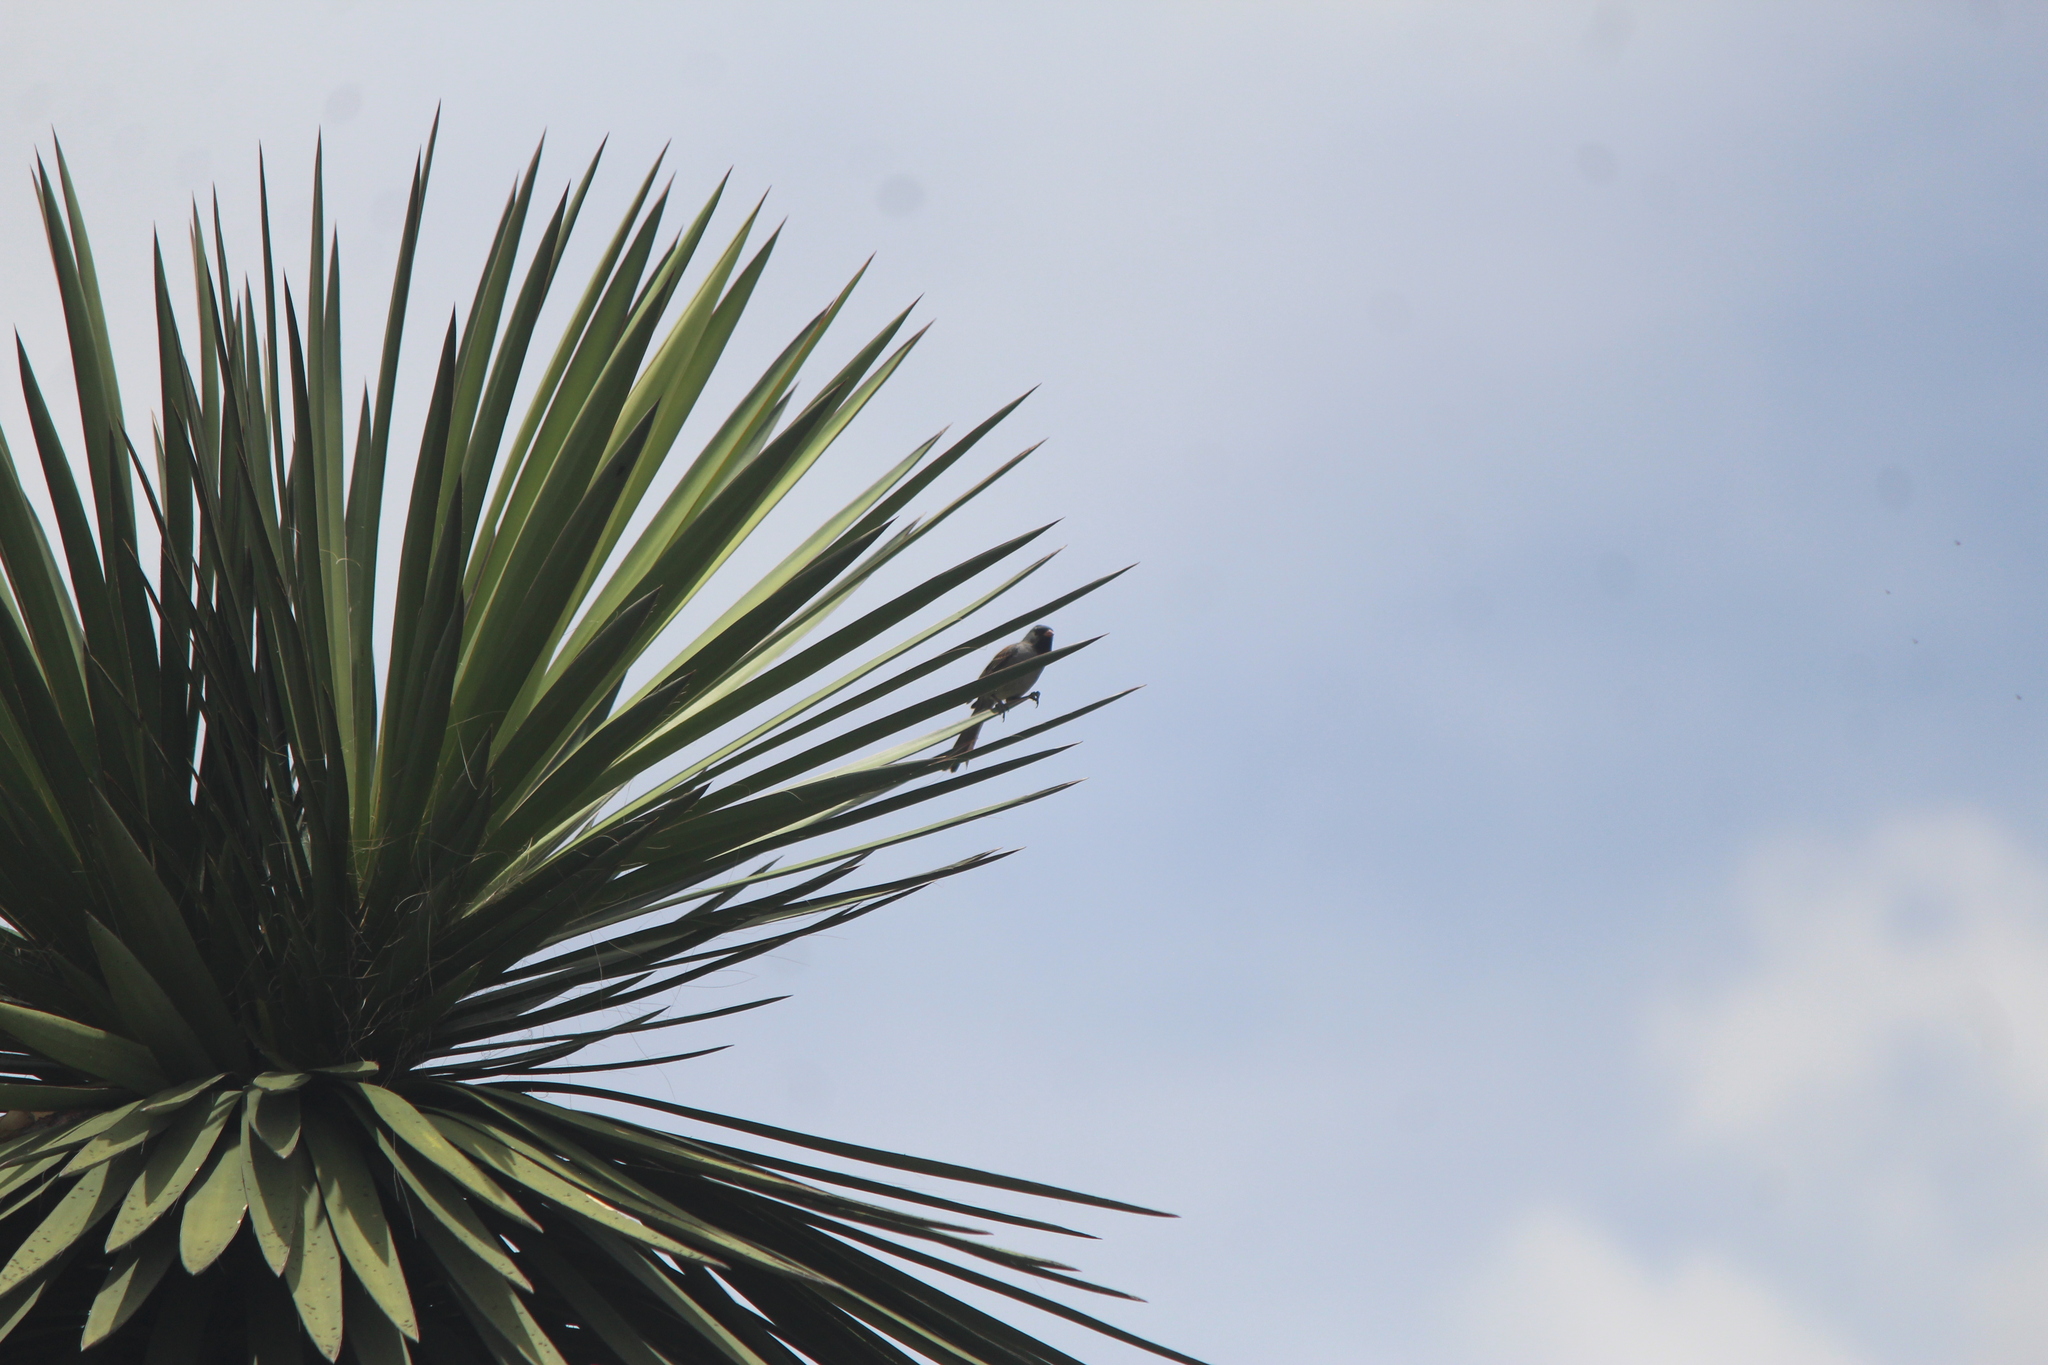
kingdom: Animalia
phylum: Chordata
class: Aves
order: Passeriformes
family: Passerellidae
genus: Spizella
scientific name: Spizella atrogularis
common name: Black-chinned sparrow
